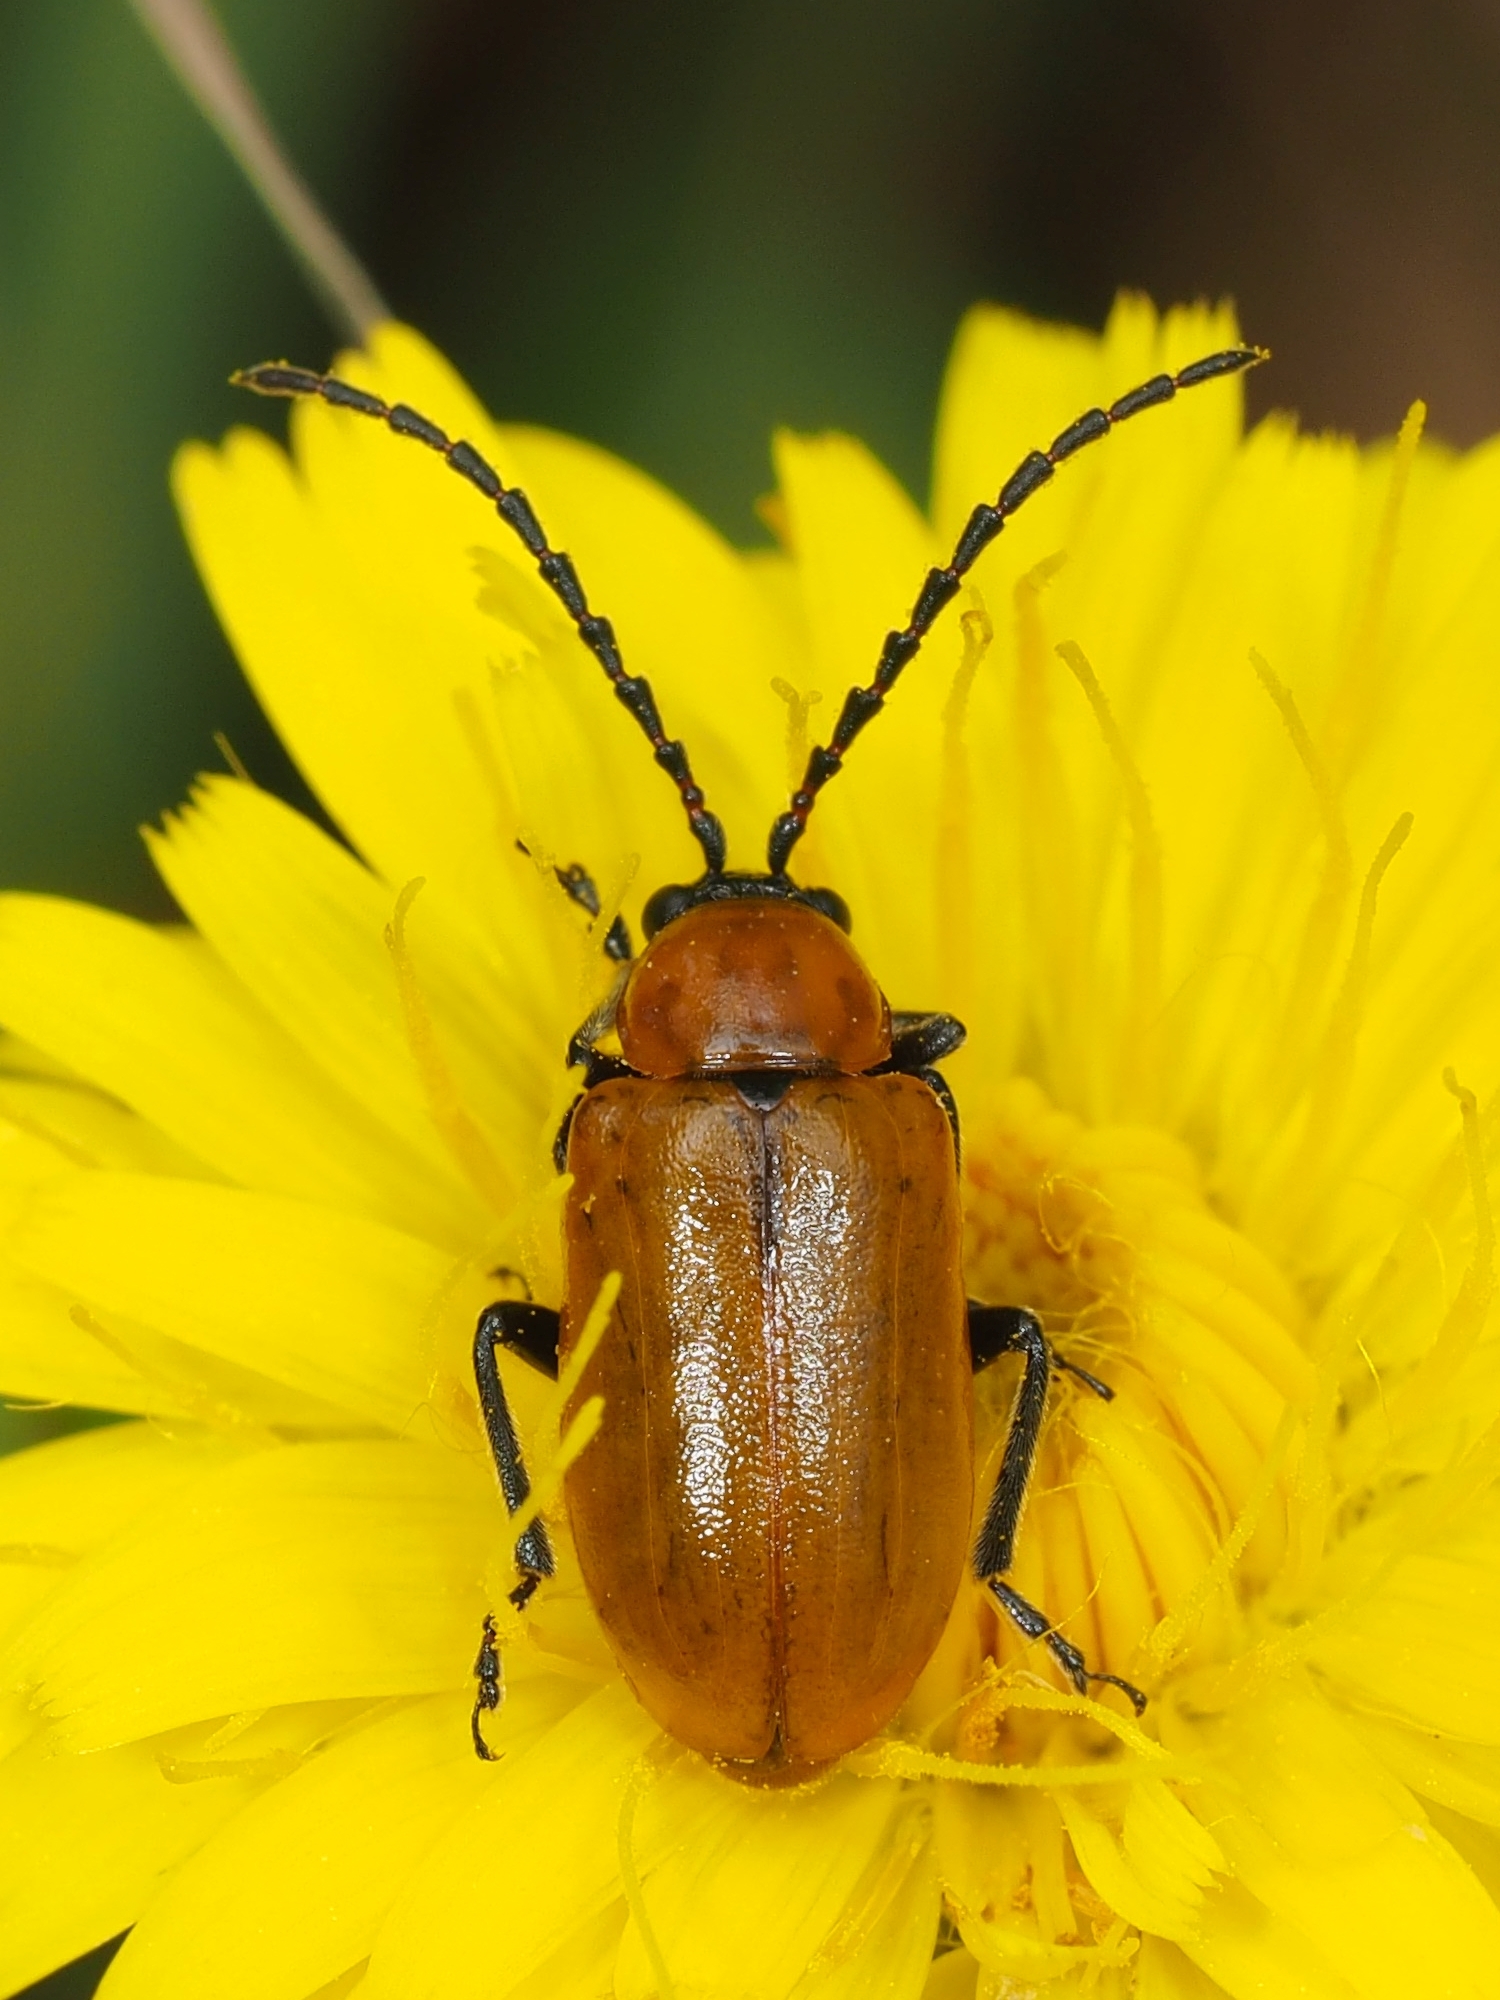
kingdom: Animalia
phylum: Arthropoda
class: Insecta
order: Coleoptera
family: Chrysomelidae
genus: Exosoma
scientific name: Exosoma lusitanicum
